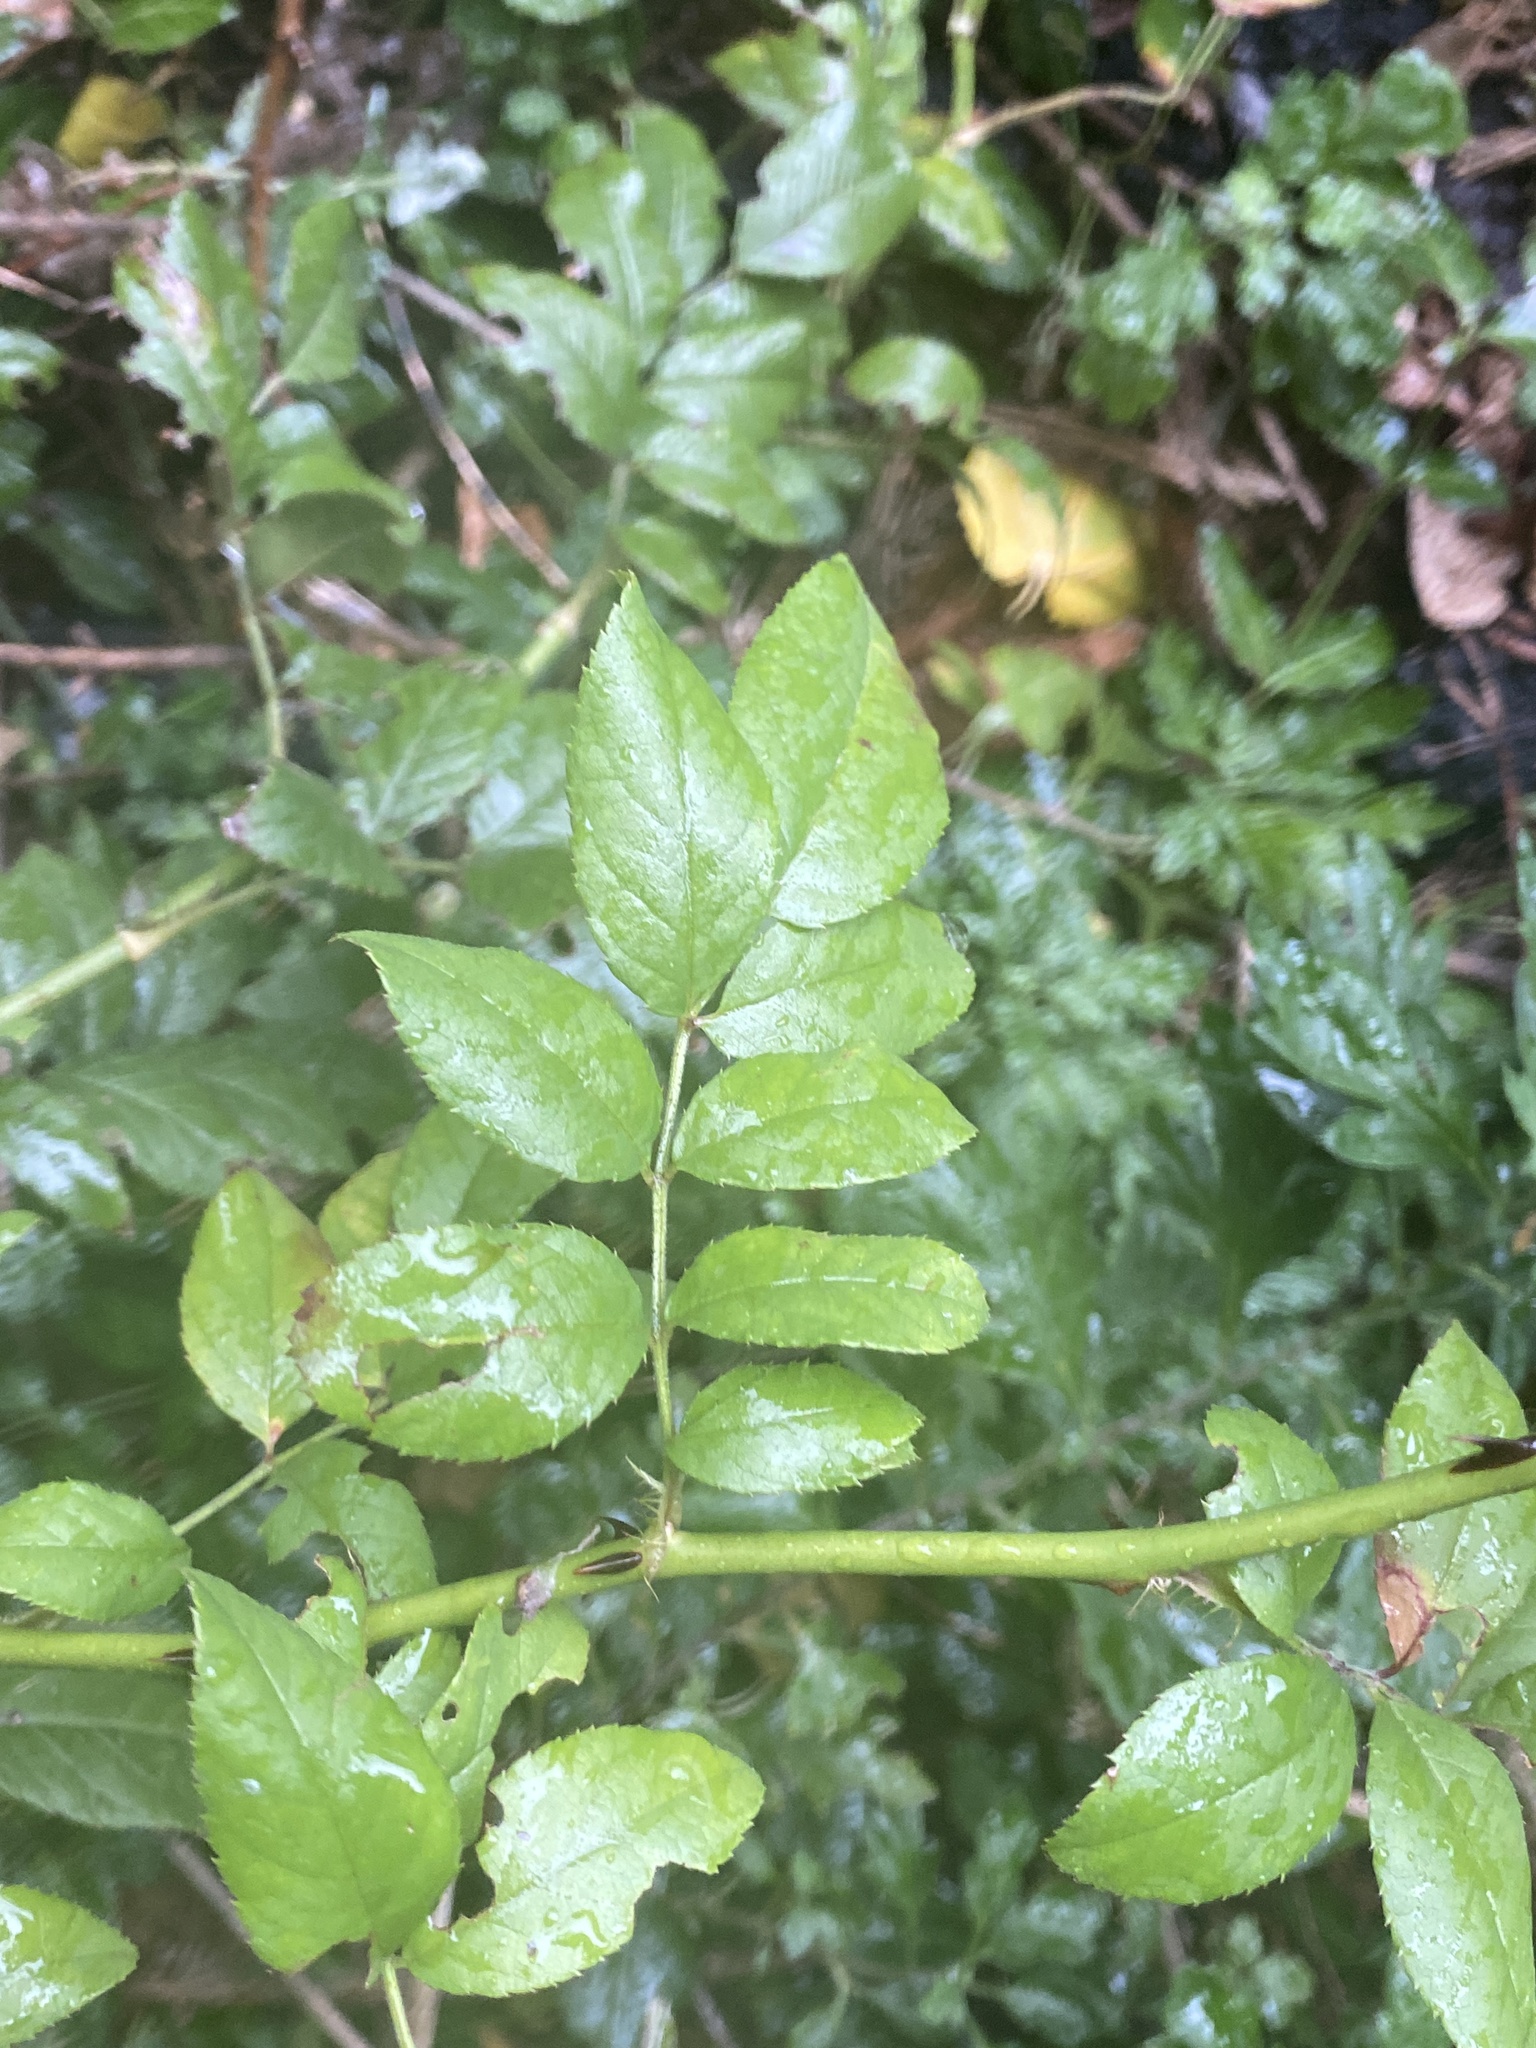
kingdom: Plantae
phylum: Tracheophyta
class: Magnoliopsida
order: Rosales
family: Rosaceae
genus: Rosa
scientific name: Rosa multiflora
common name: Multiflora rose
